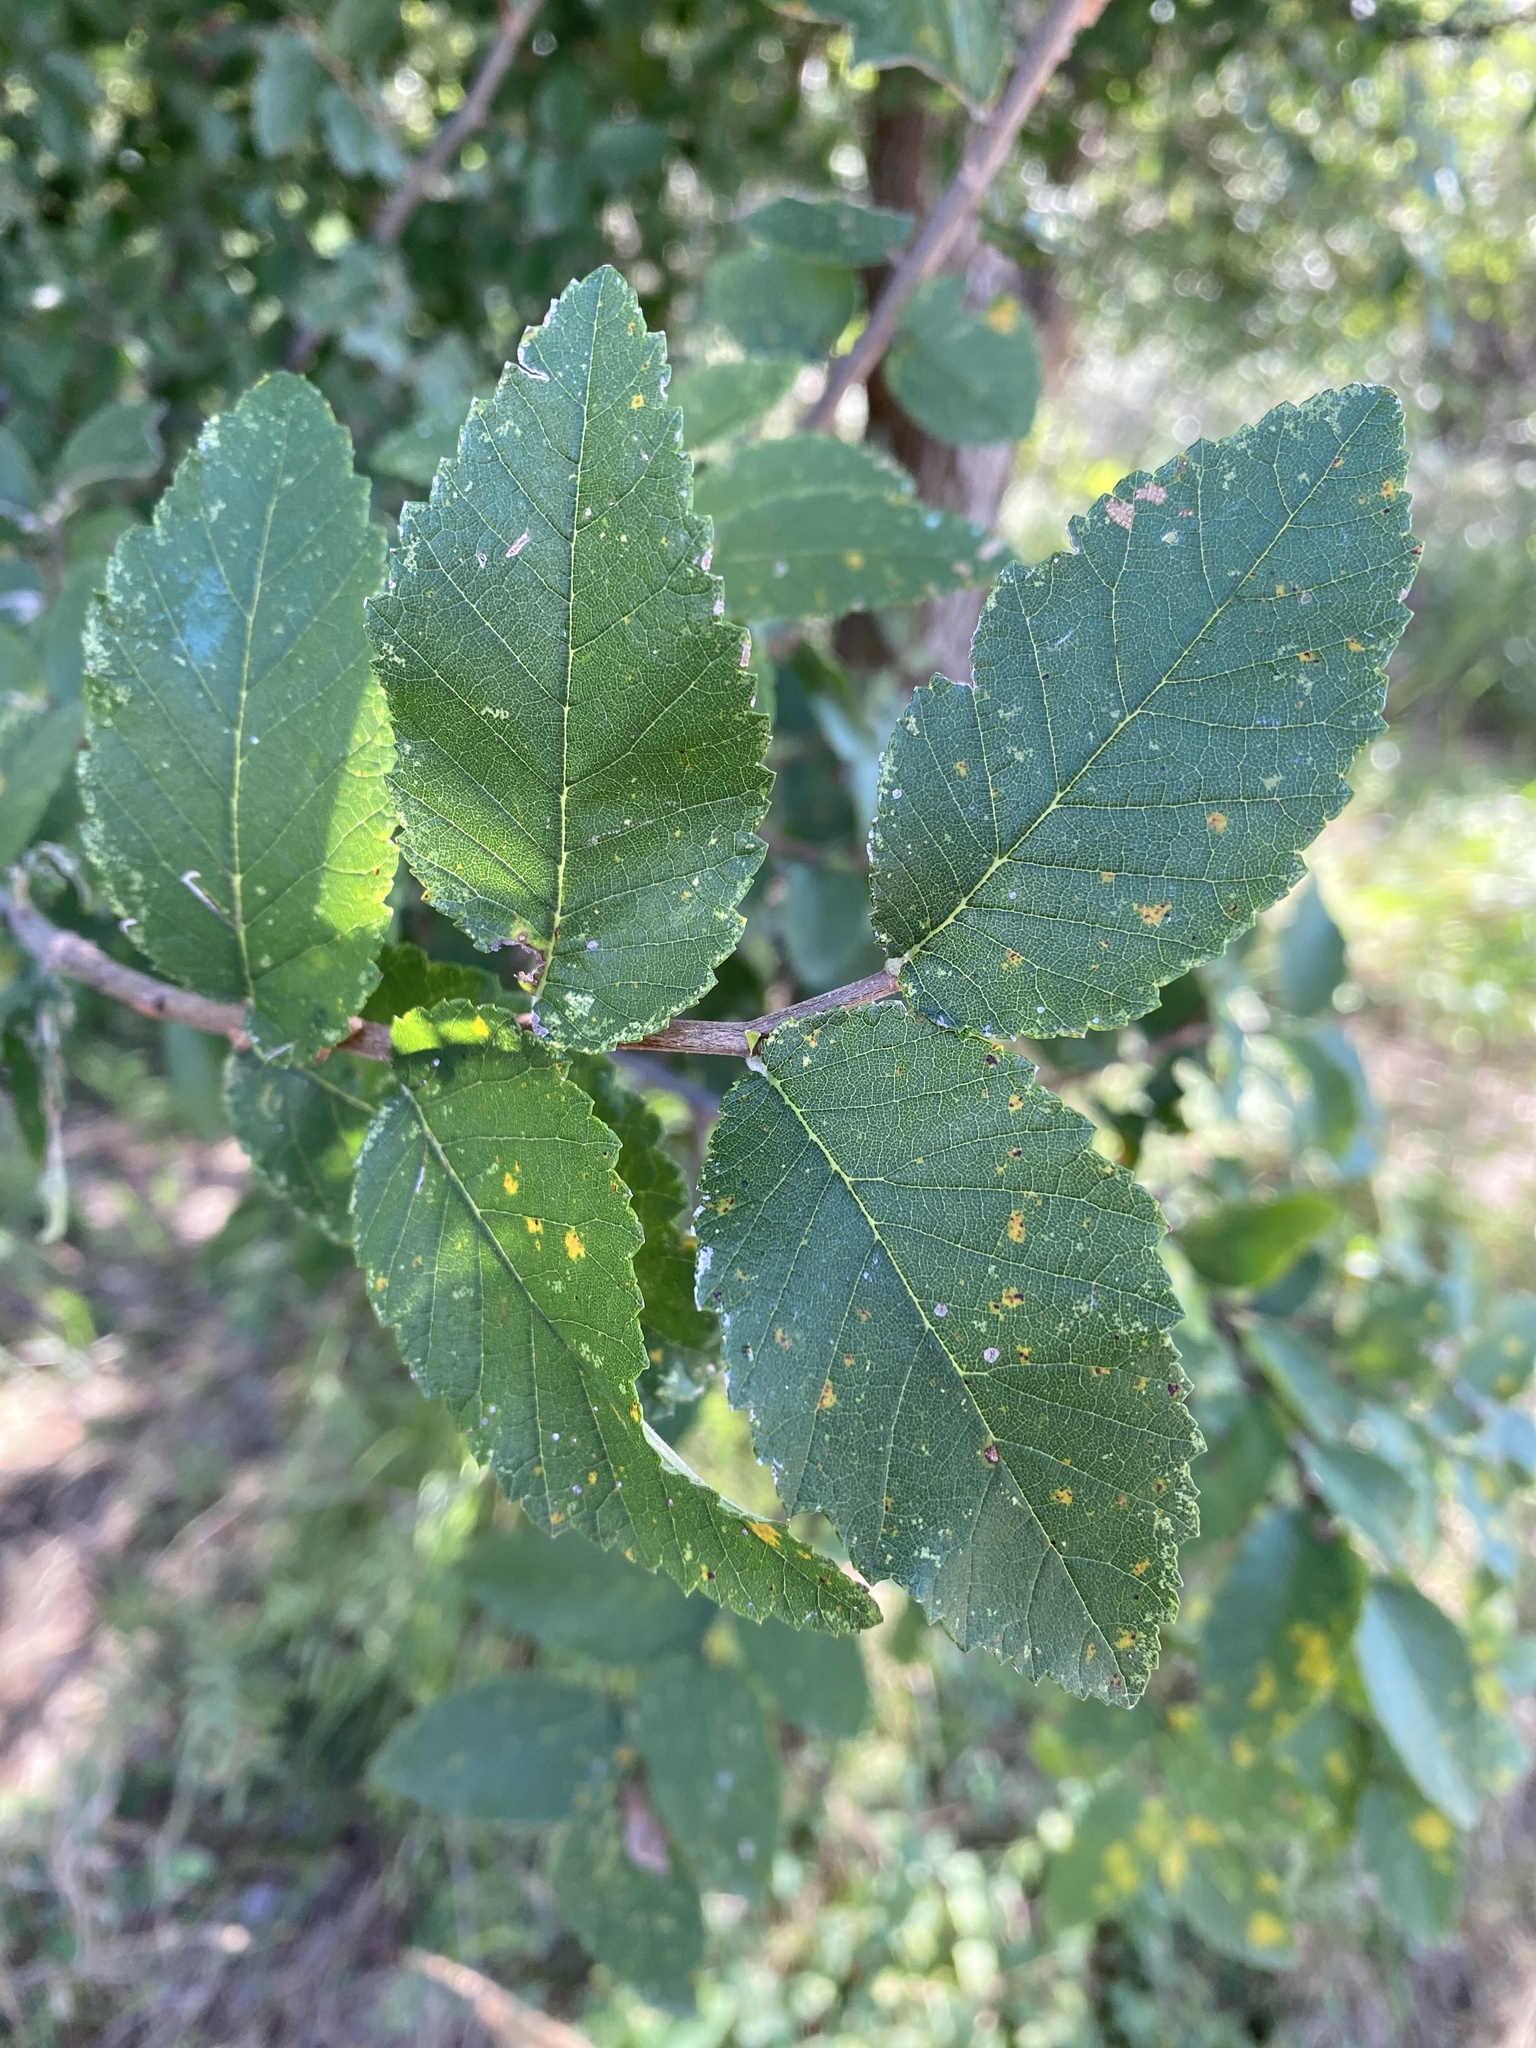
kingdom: Plantae
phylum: Tracheophyta
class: Magnoliopsida
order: Rosales
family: Ulmaceae
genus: Ulmus
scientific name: Ulmus crassifolia
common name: Basket elm
